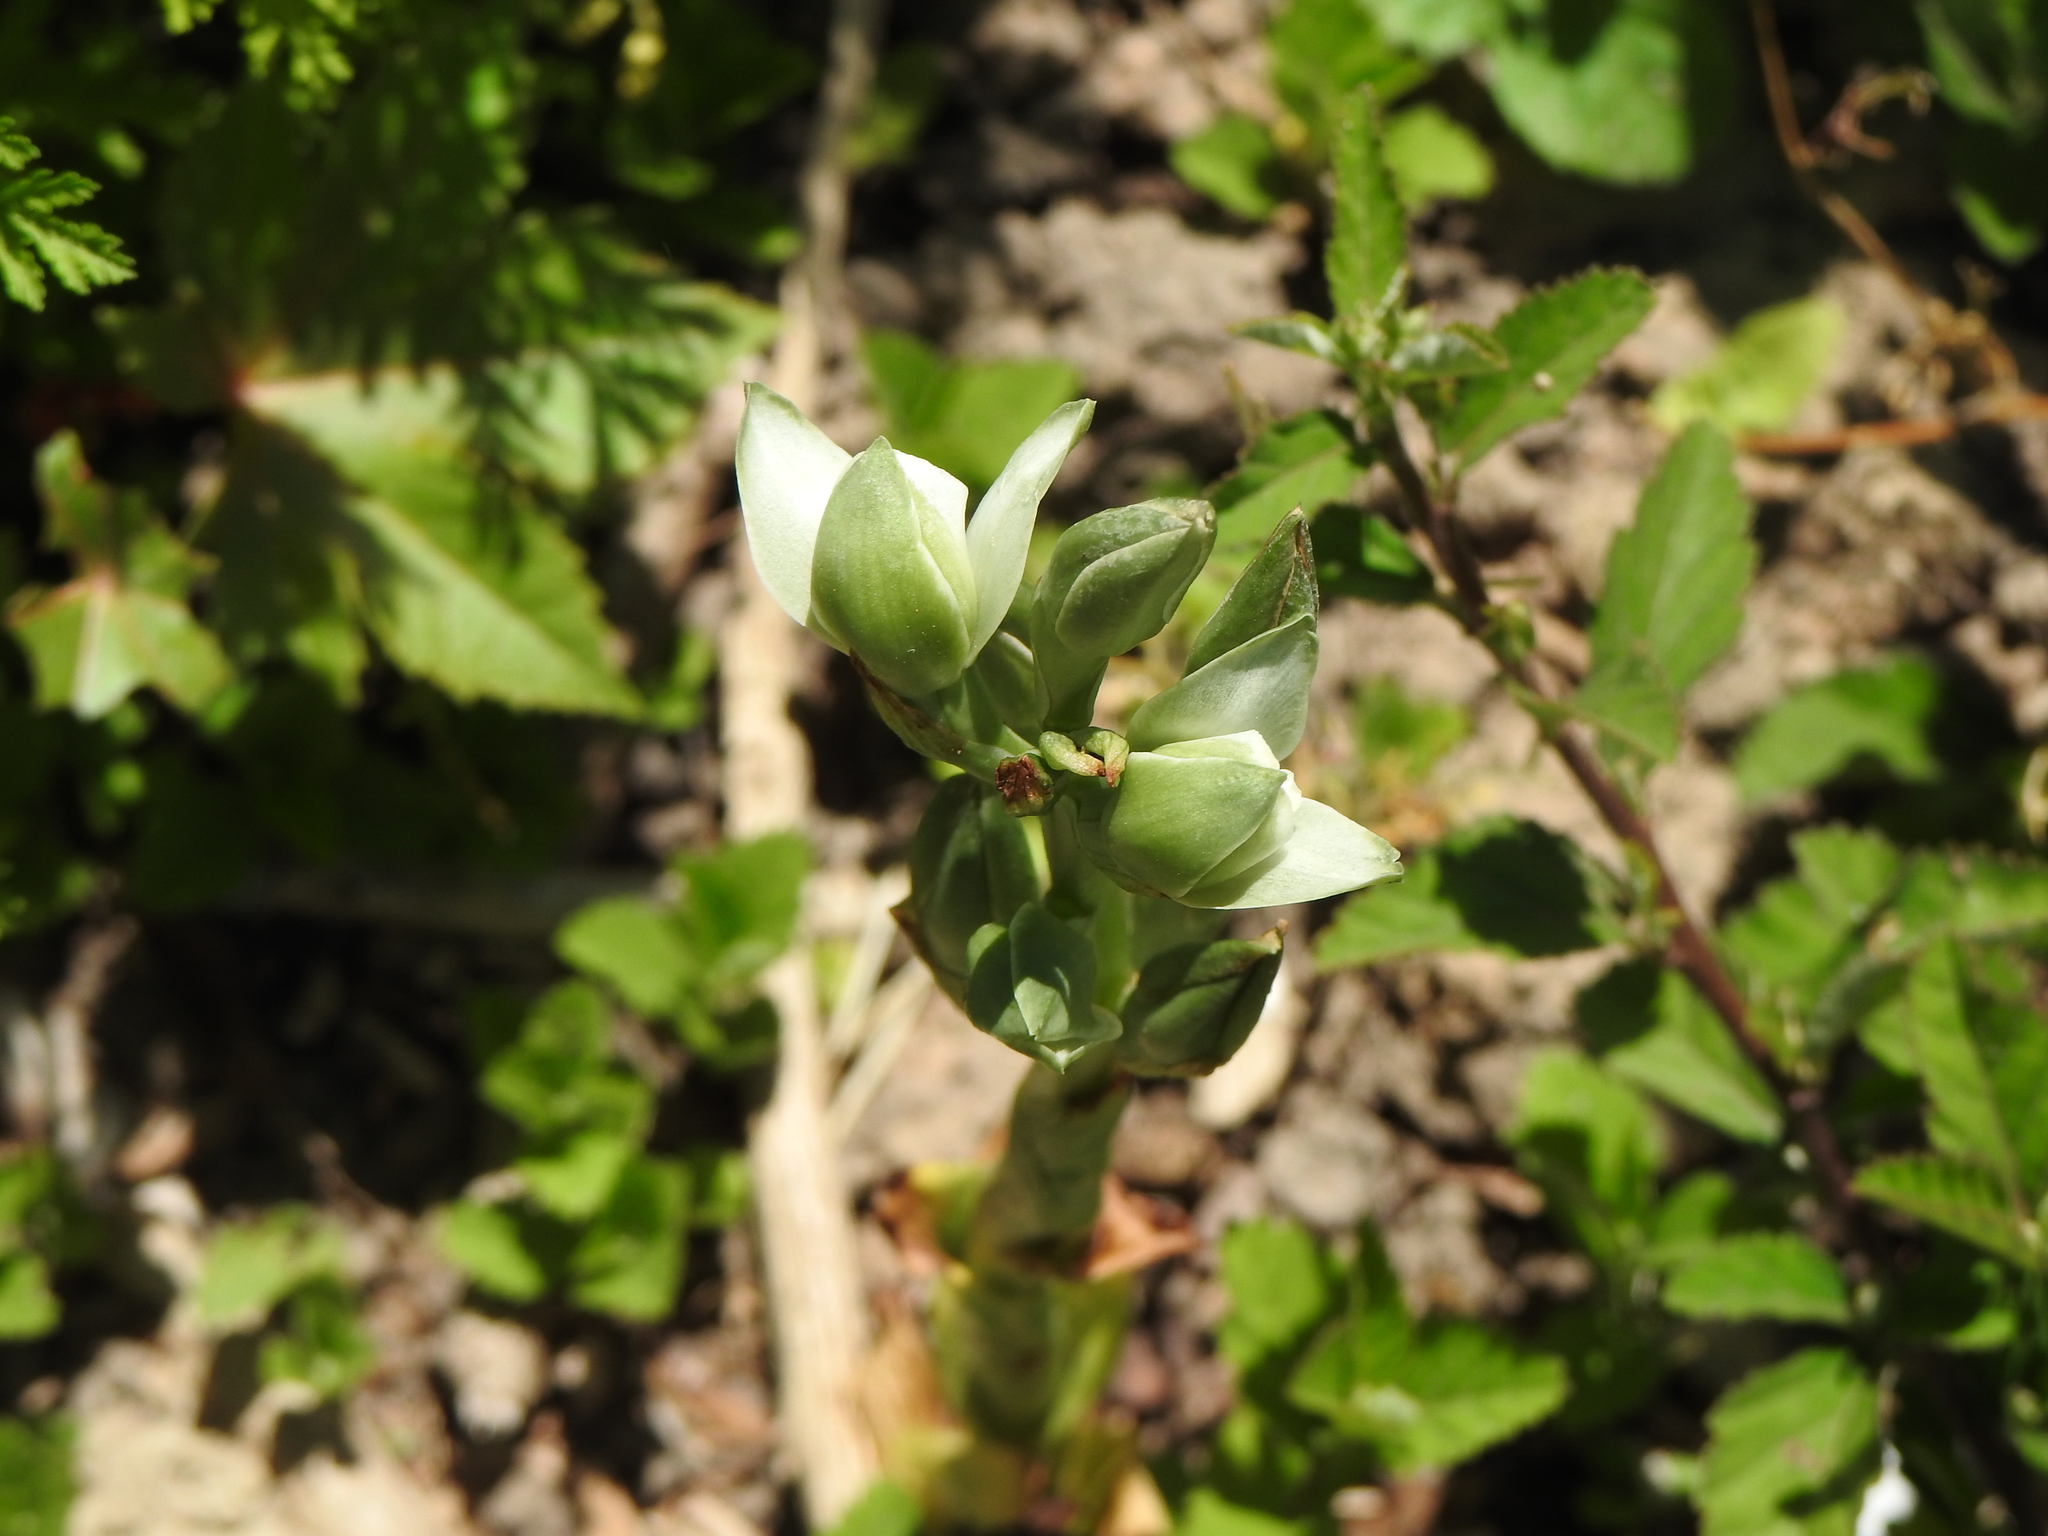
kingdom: Plantae
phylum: Tracheophyta
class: Liliopsida
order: Asparagales
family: Orchidaceae
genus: Chloraea
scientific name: Chloraea membranacea
